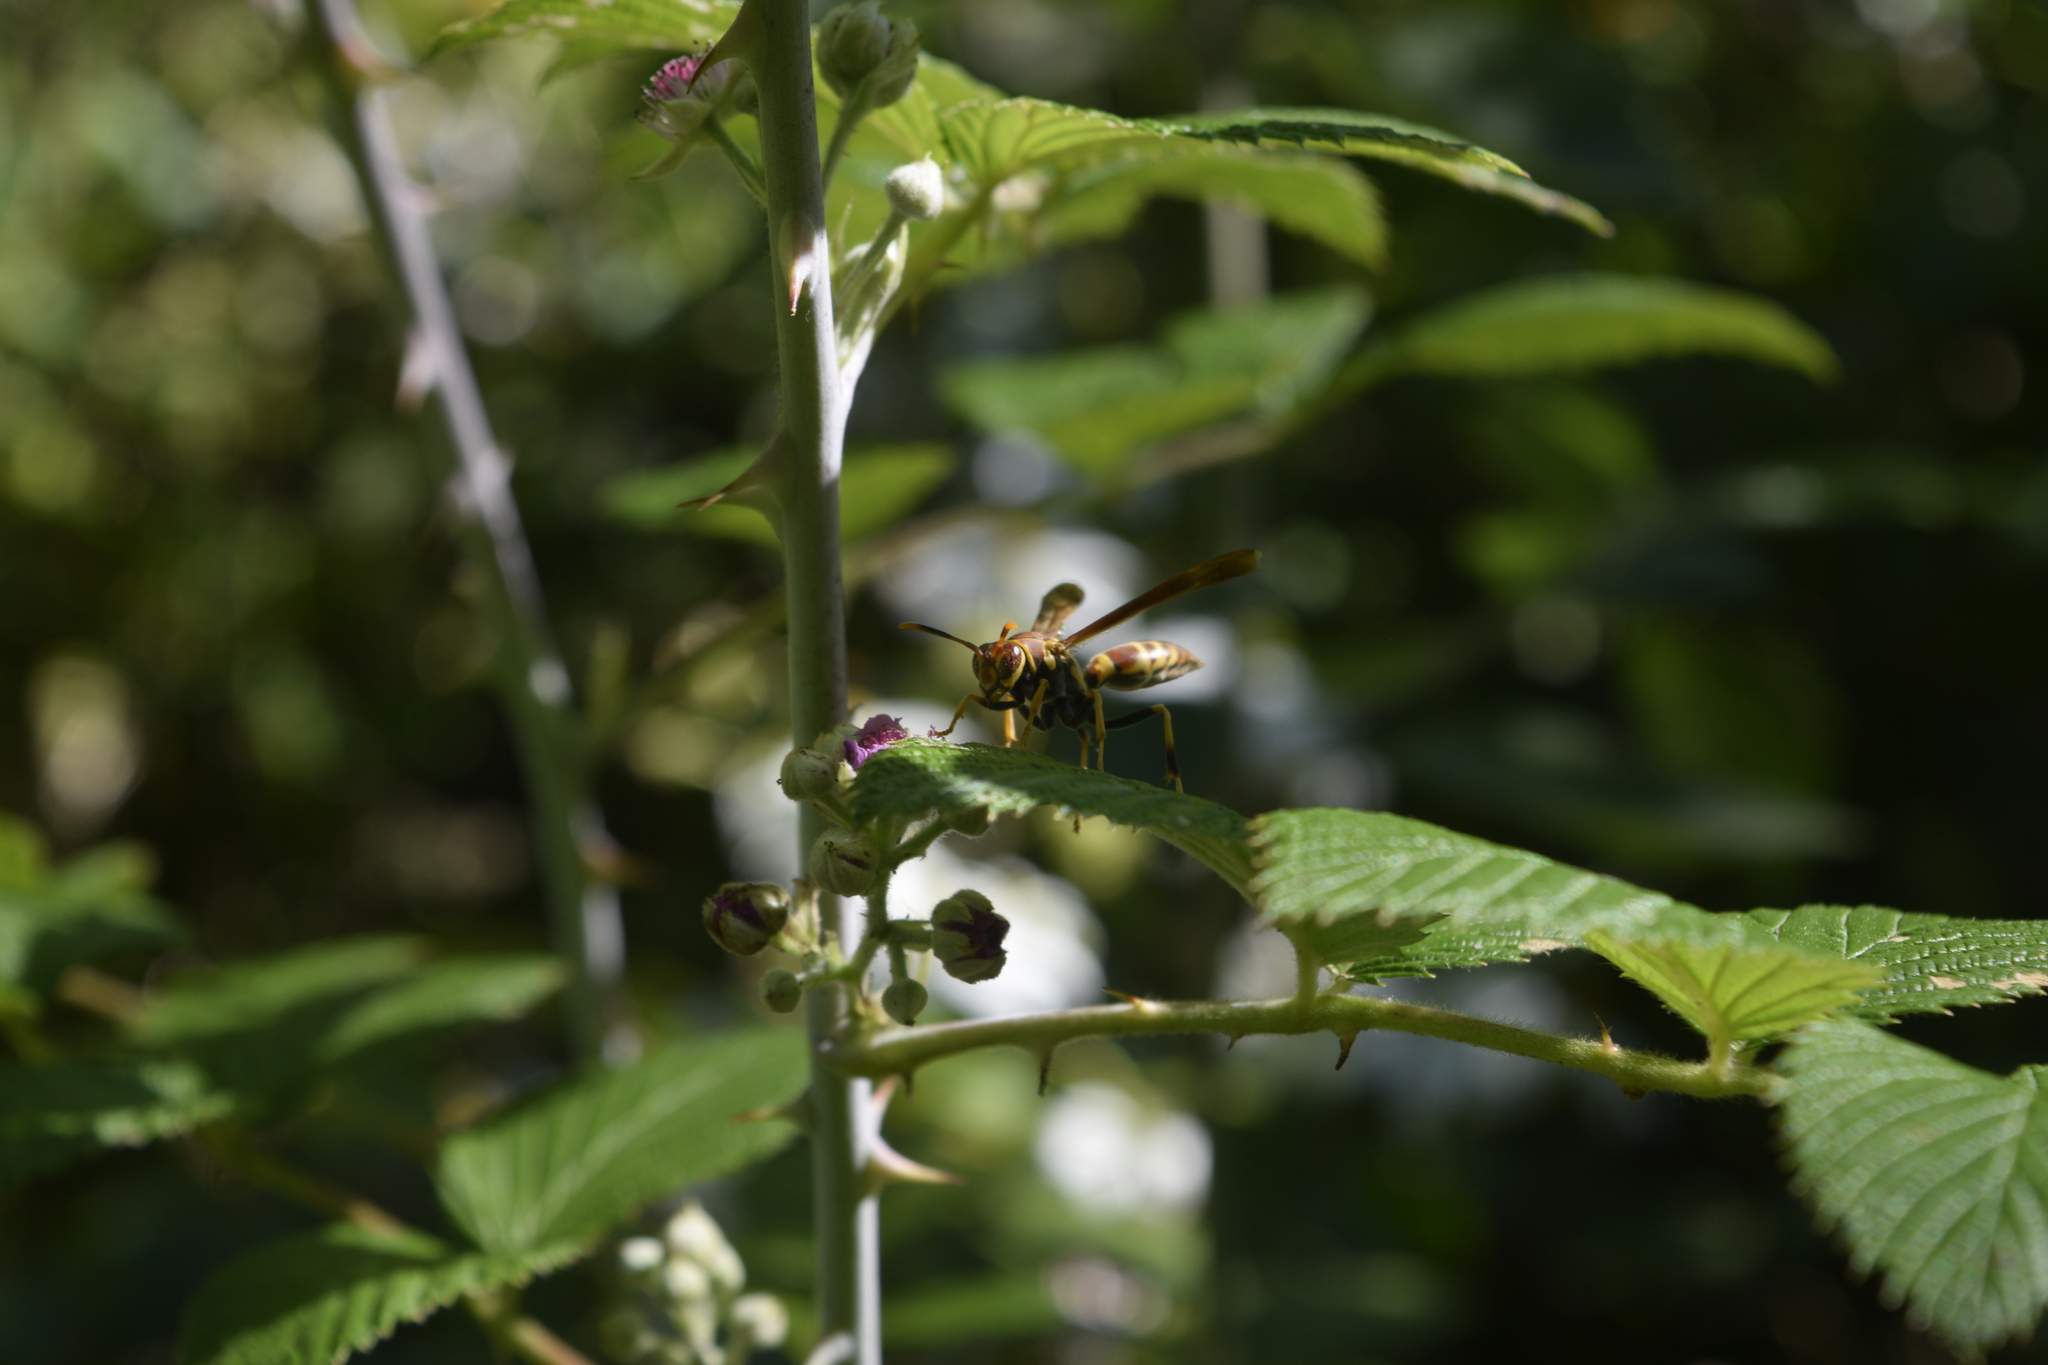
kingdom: Animalia
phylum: Arthropoda
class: Insecta
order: Hymenoptera
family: Eumenidae
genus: Polistes
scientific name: Polistes instabilis
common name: Unstable paper wasp
